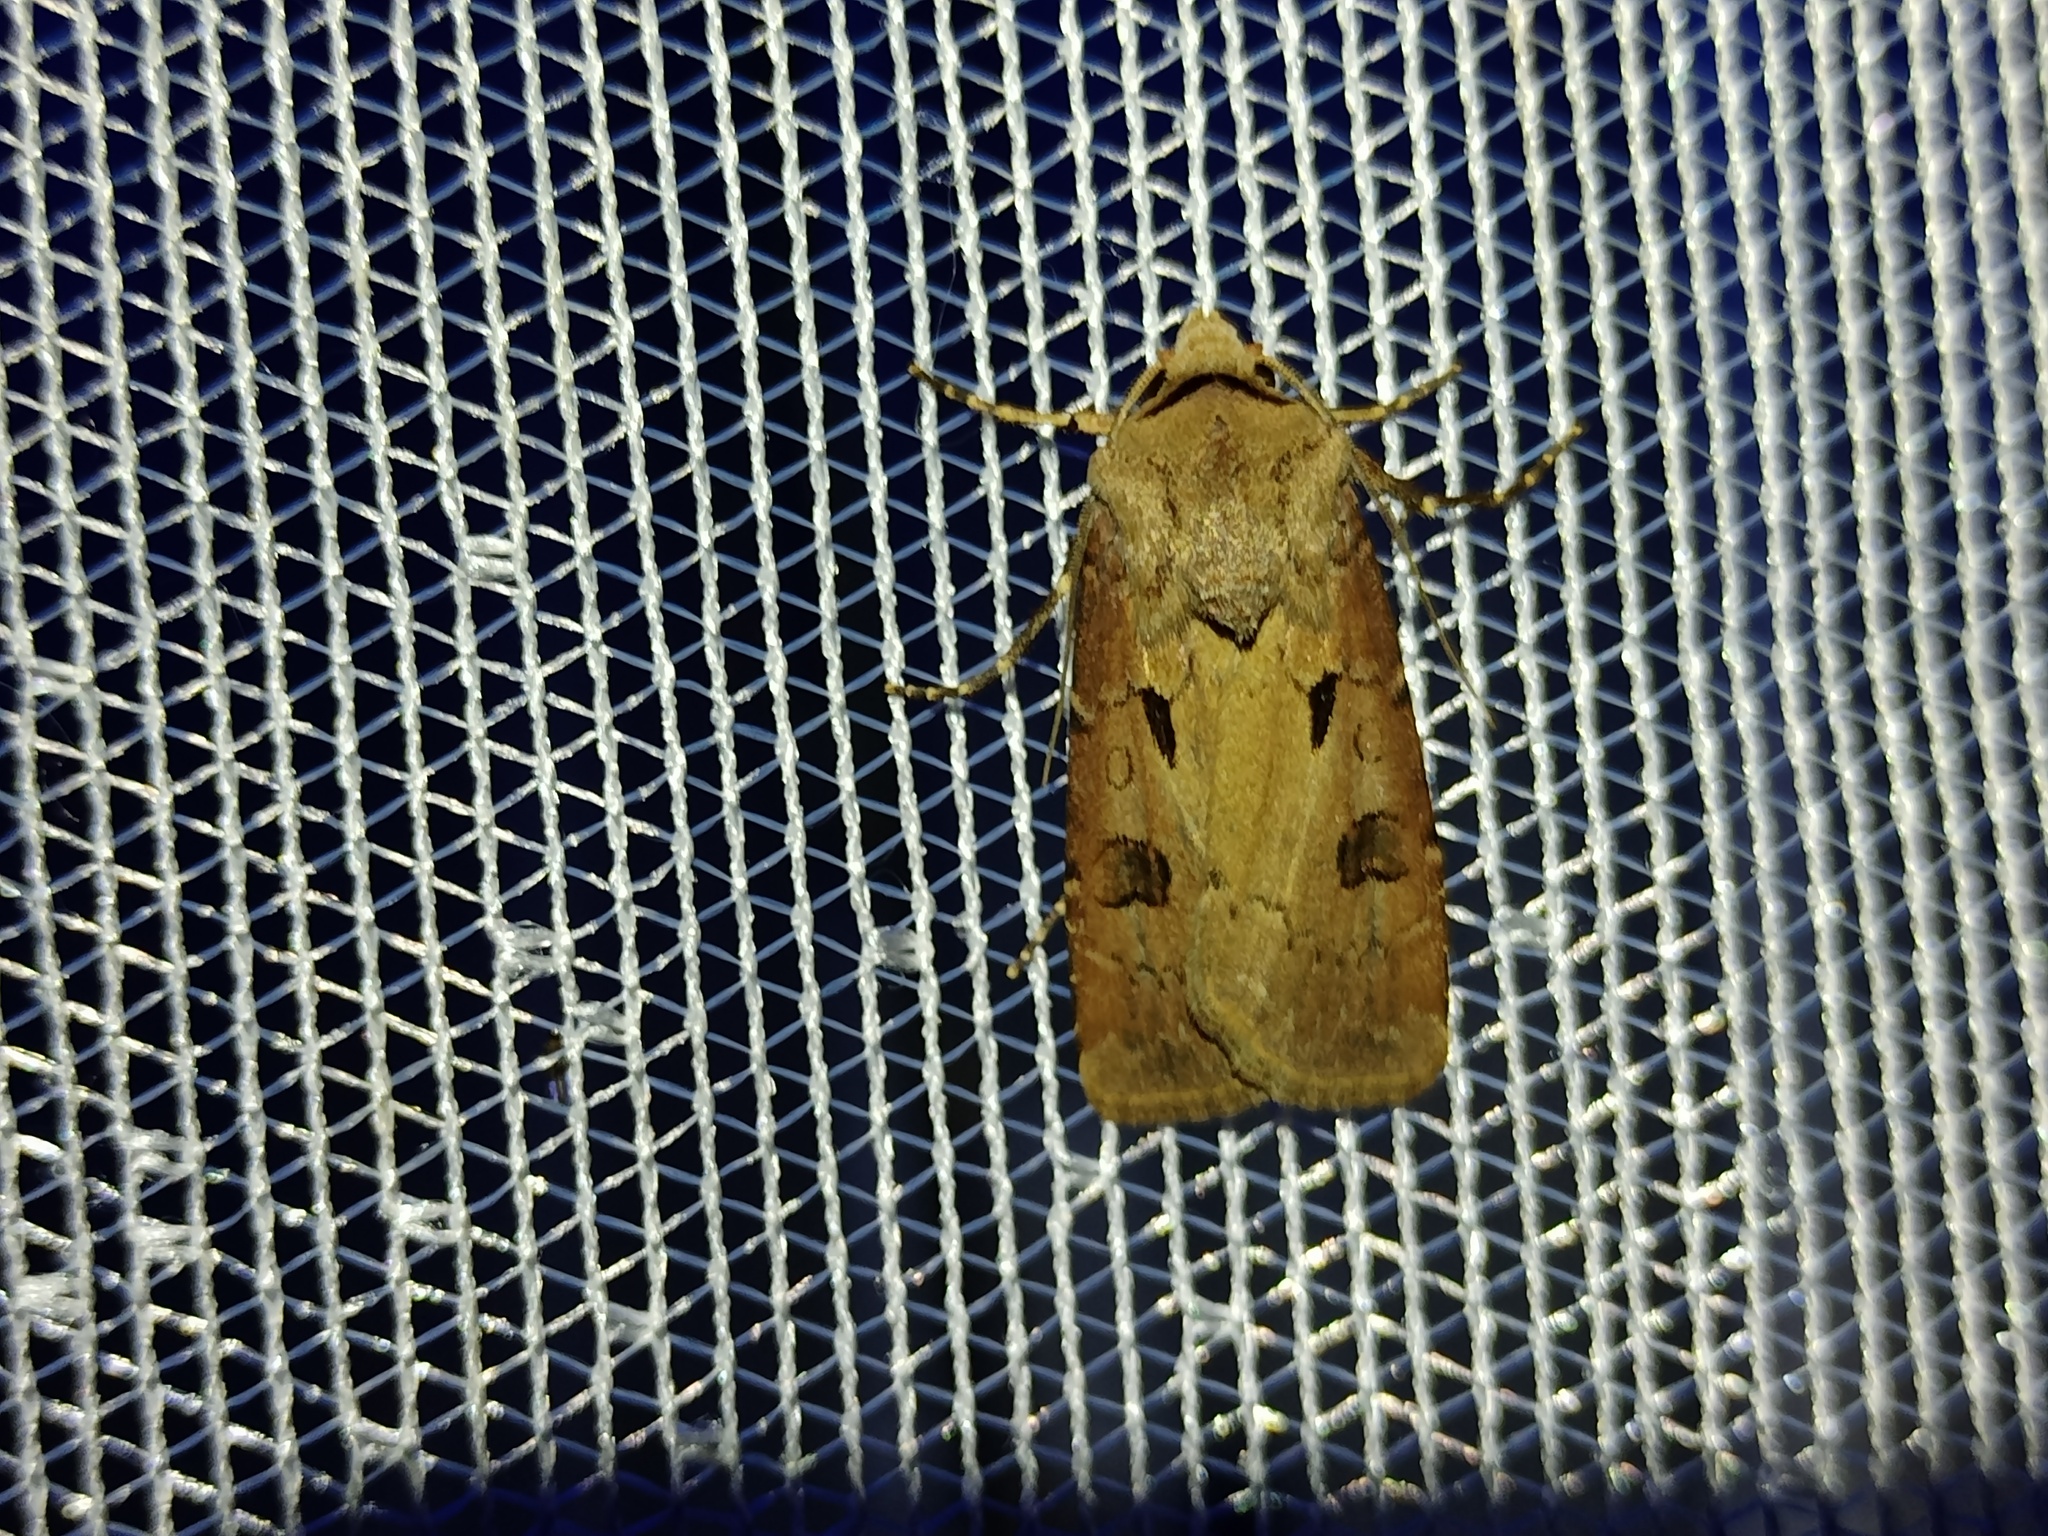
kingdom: Animalia
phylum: Arthropoda
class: Insecta
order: Lepidoptera
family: Noctuidae
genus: Agrotis
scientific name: Agrotis exclamationis
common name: Heart and dart
